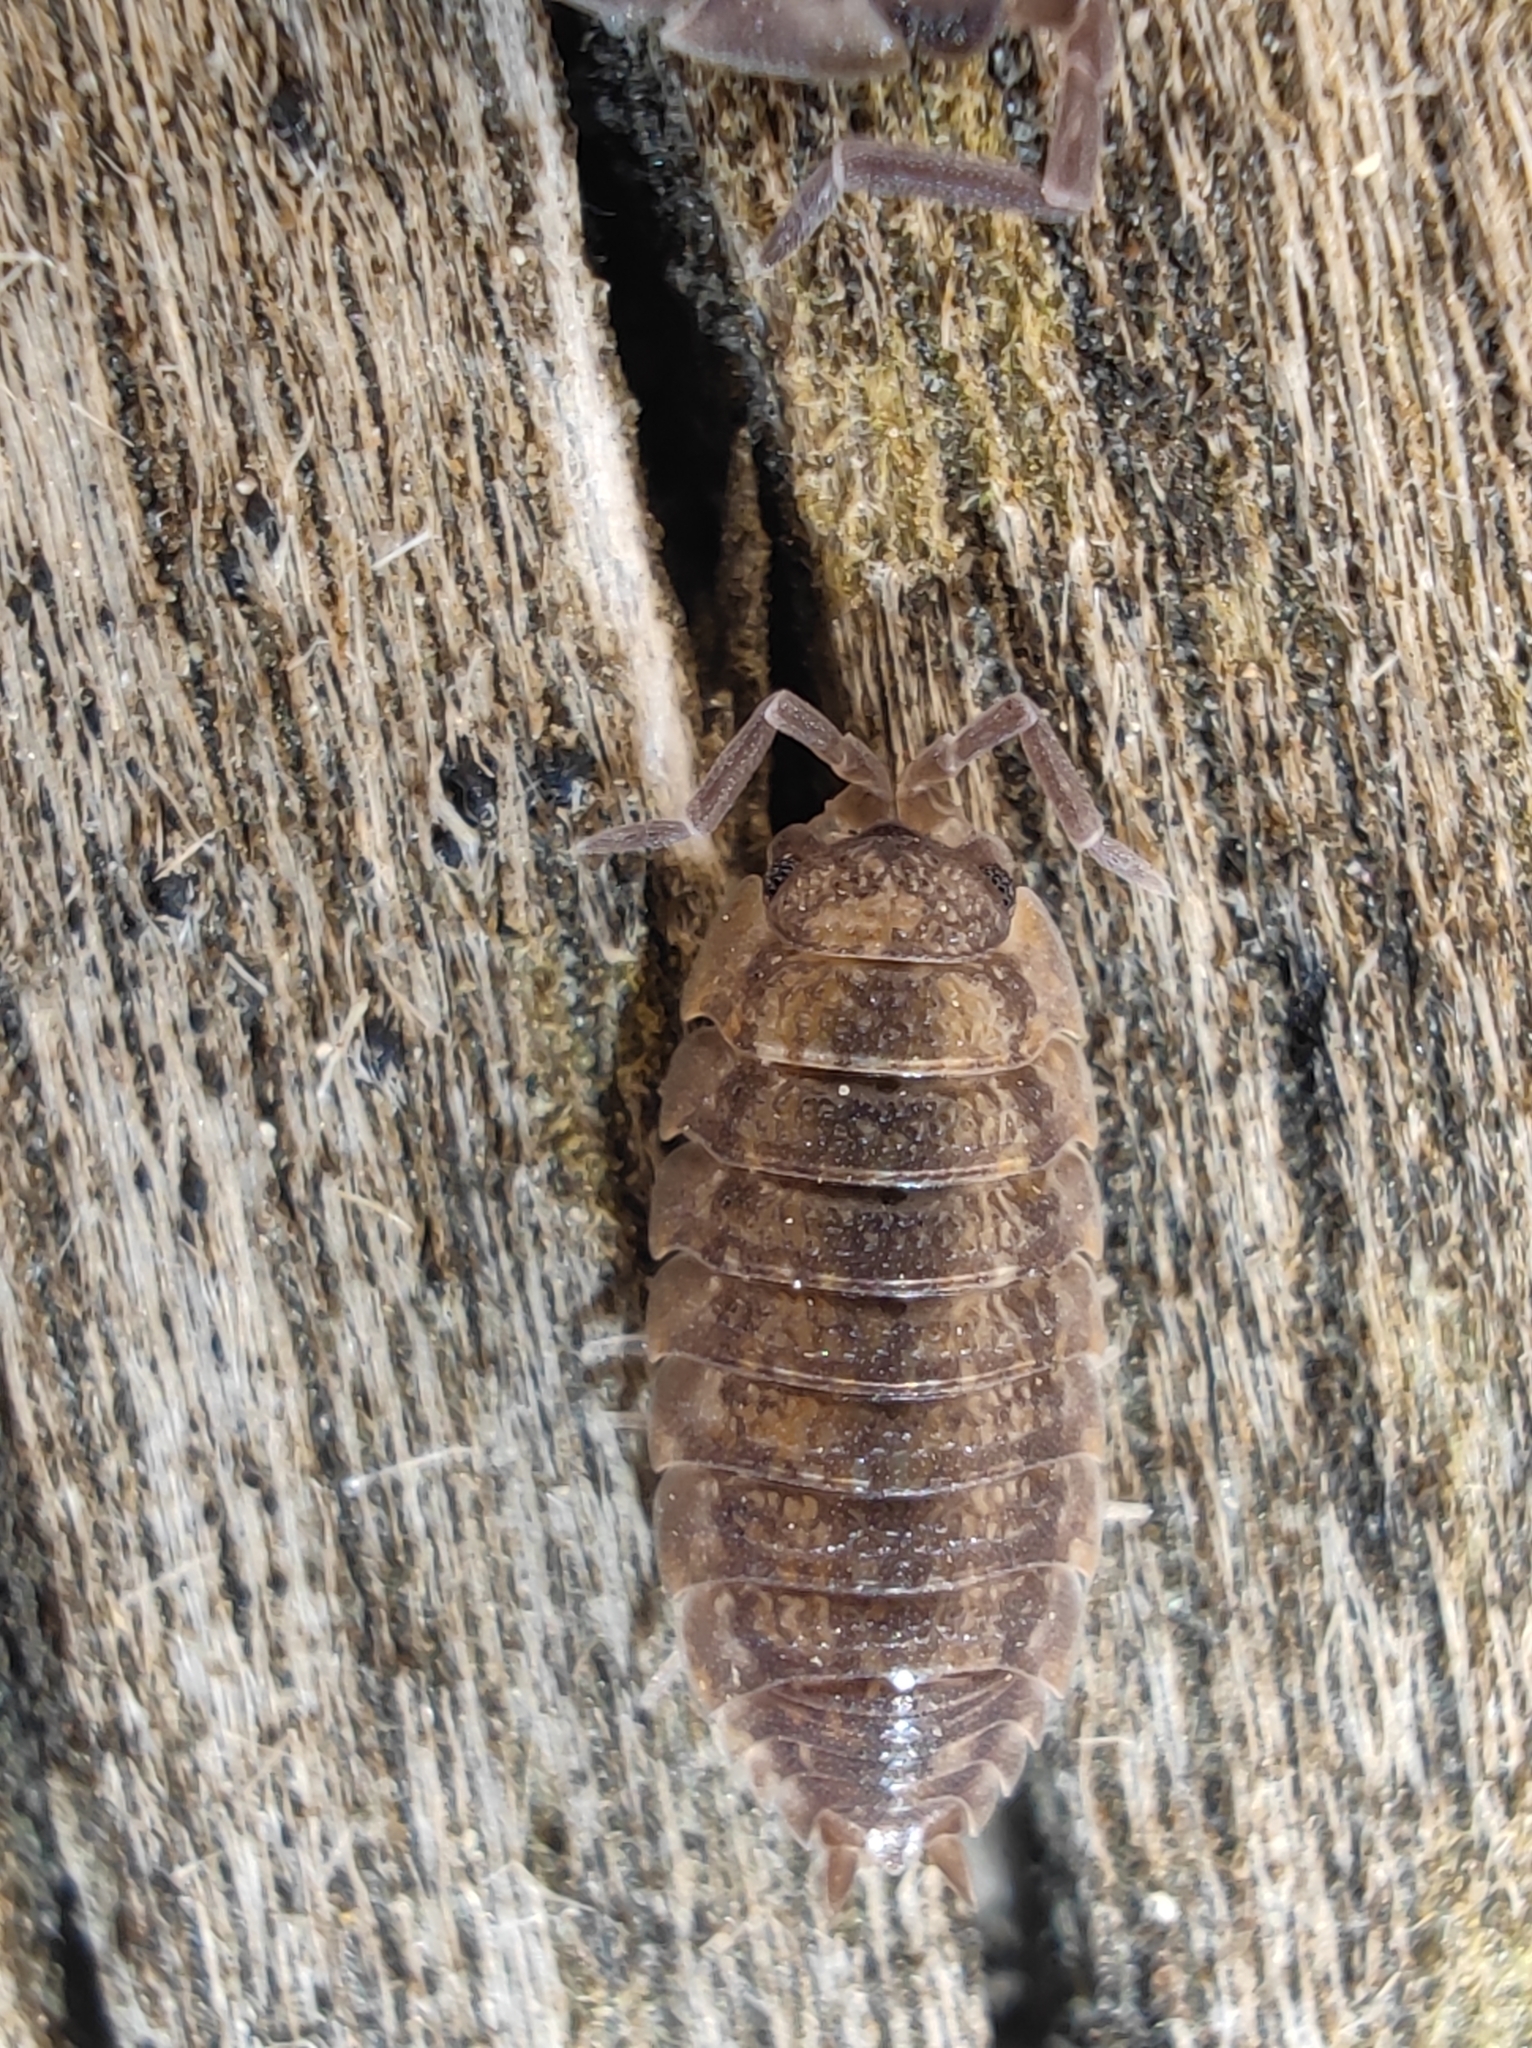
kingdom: Animalia
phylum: Arthropoda
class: Malacostraca
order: Isopoda
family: Porcellionidae
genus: Porcellio
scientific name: Porcellio scaber
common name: Common rough woodlouse
